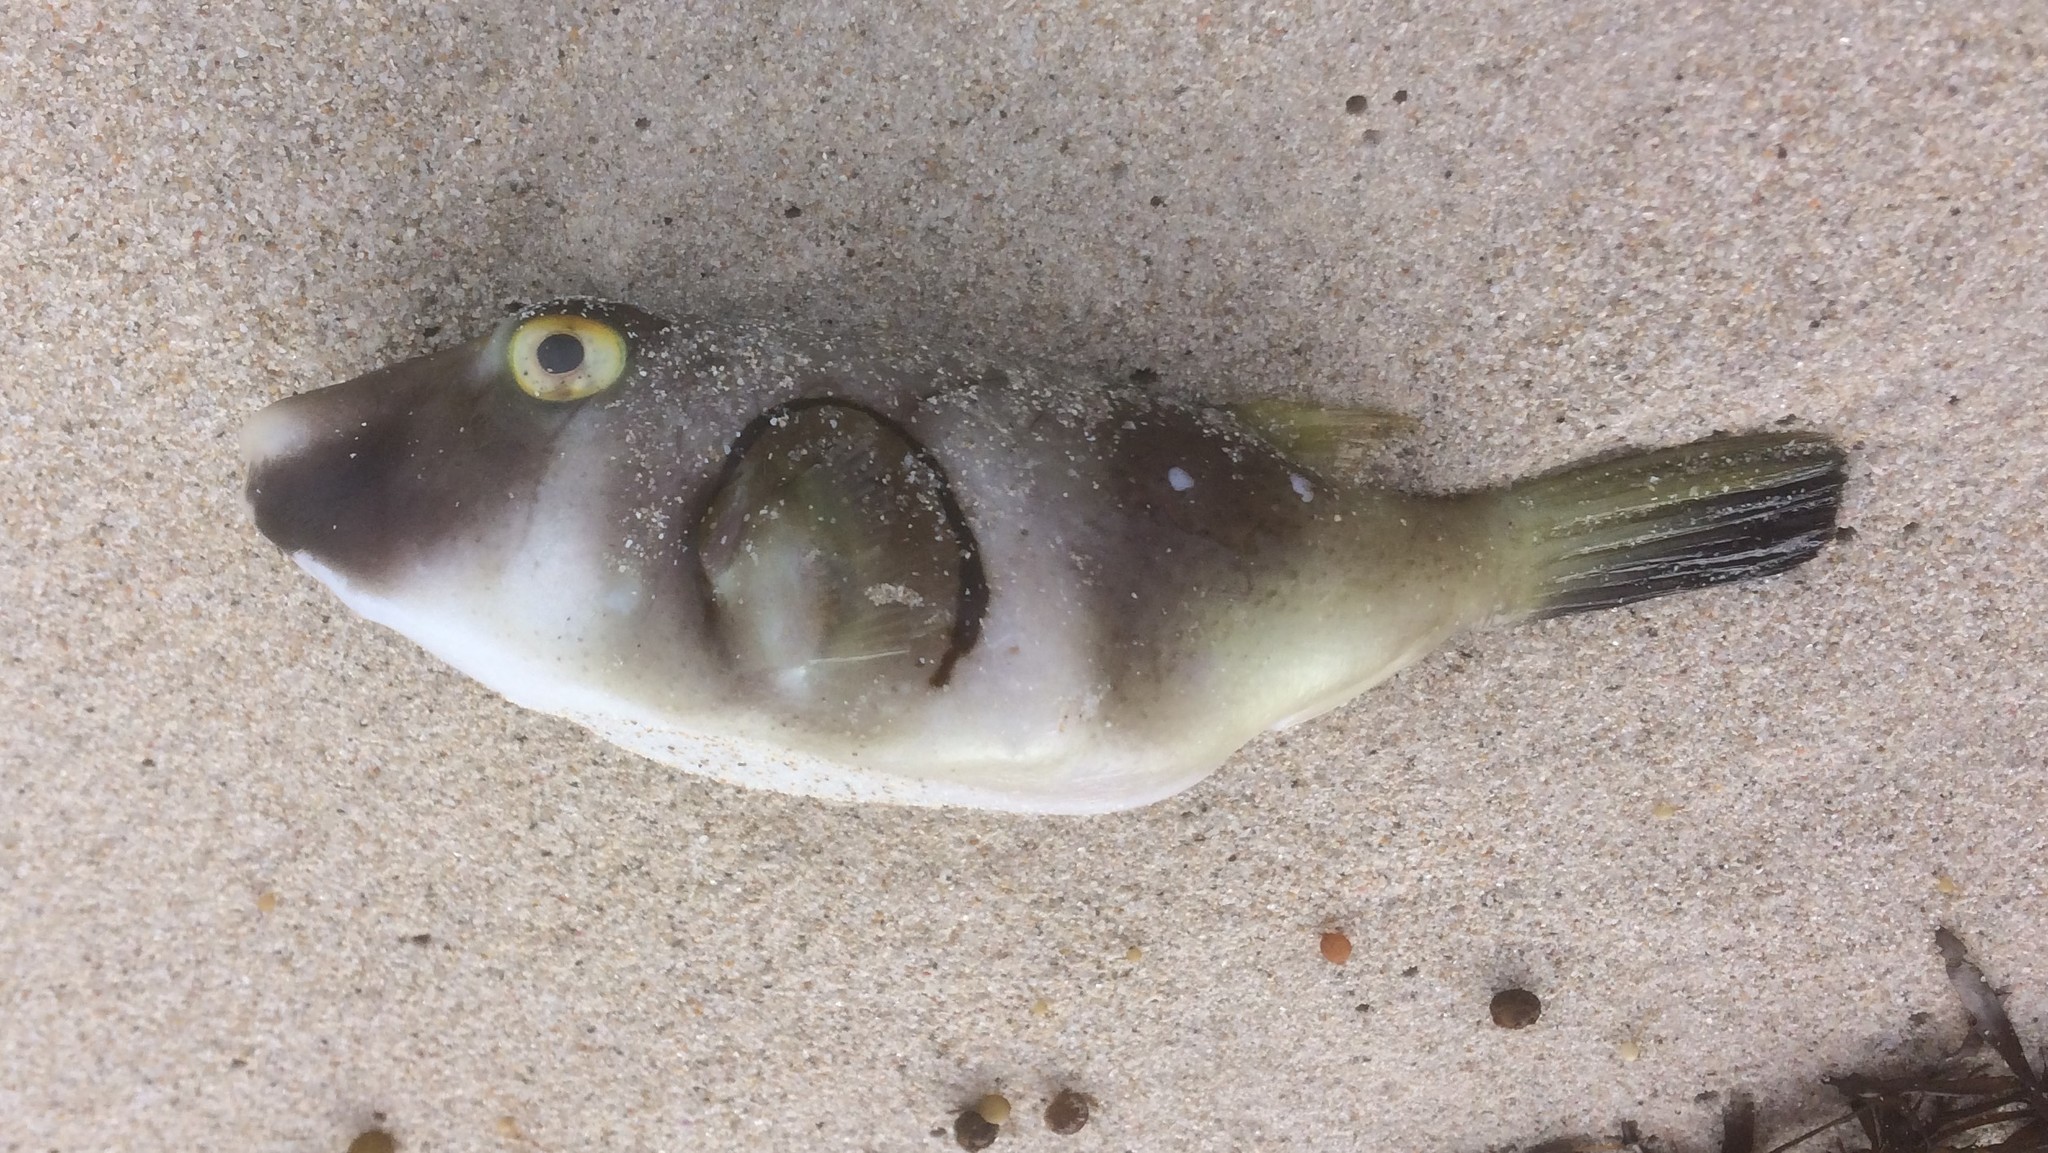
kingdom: Animalia
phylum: Chordata
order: Tetraodontiformes
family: Tetraodontidae
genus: Omegophora
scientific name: Omegophora armilla
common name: Ringed pufferfish
